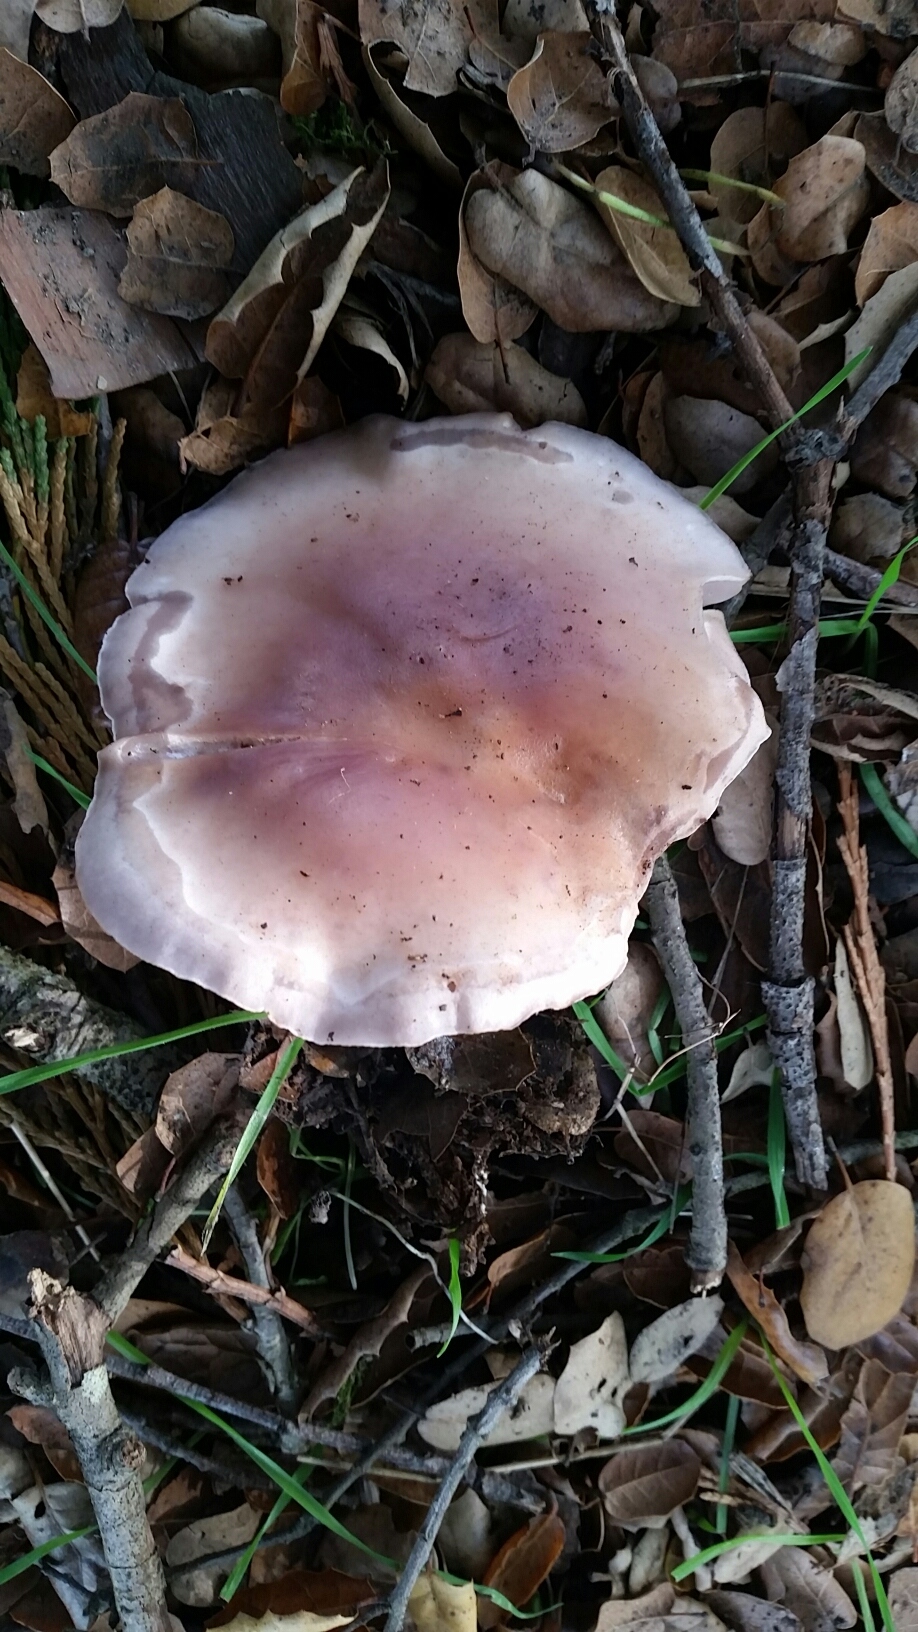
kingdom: Fungi
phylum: Basidiomycota
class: Agaricomycetes
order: Agaricales
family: Tricholomataceae
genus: Collybia
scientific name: Collybia
